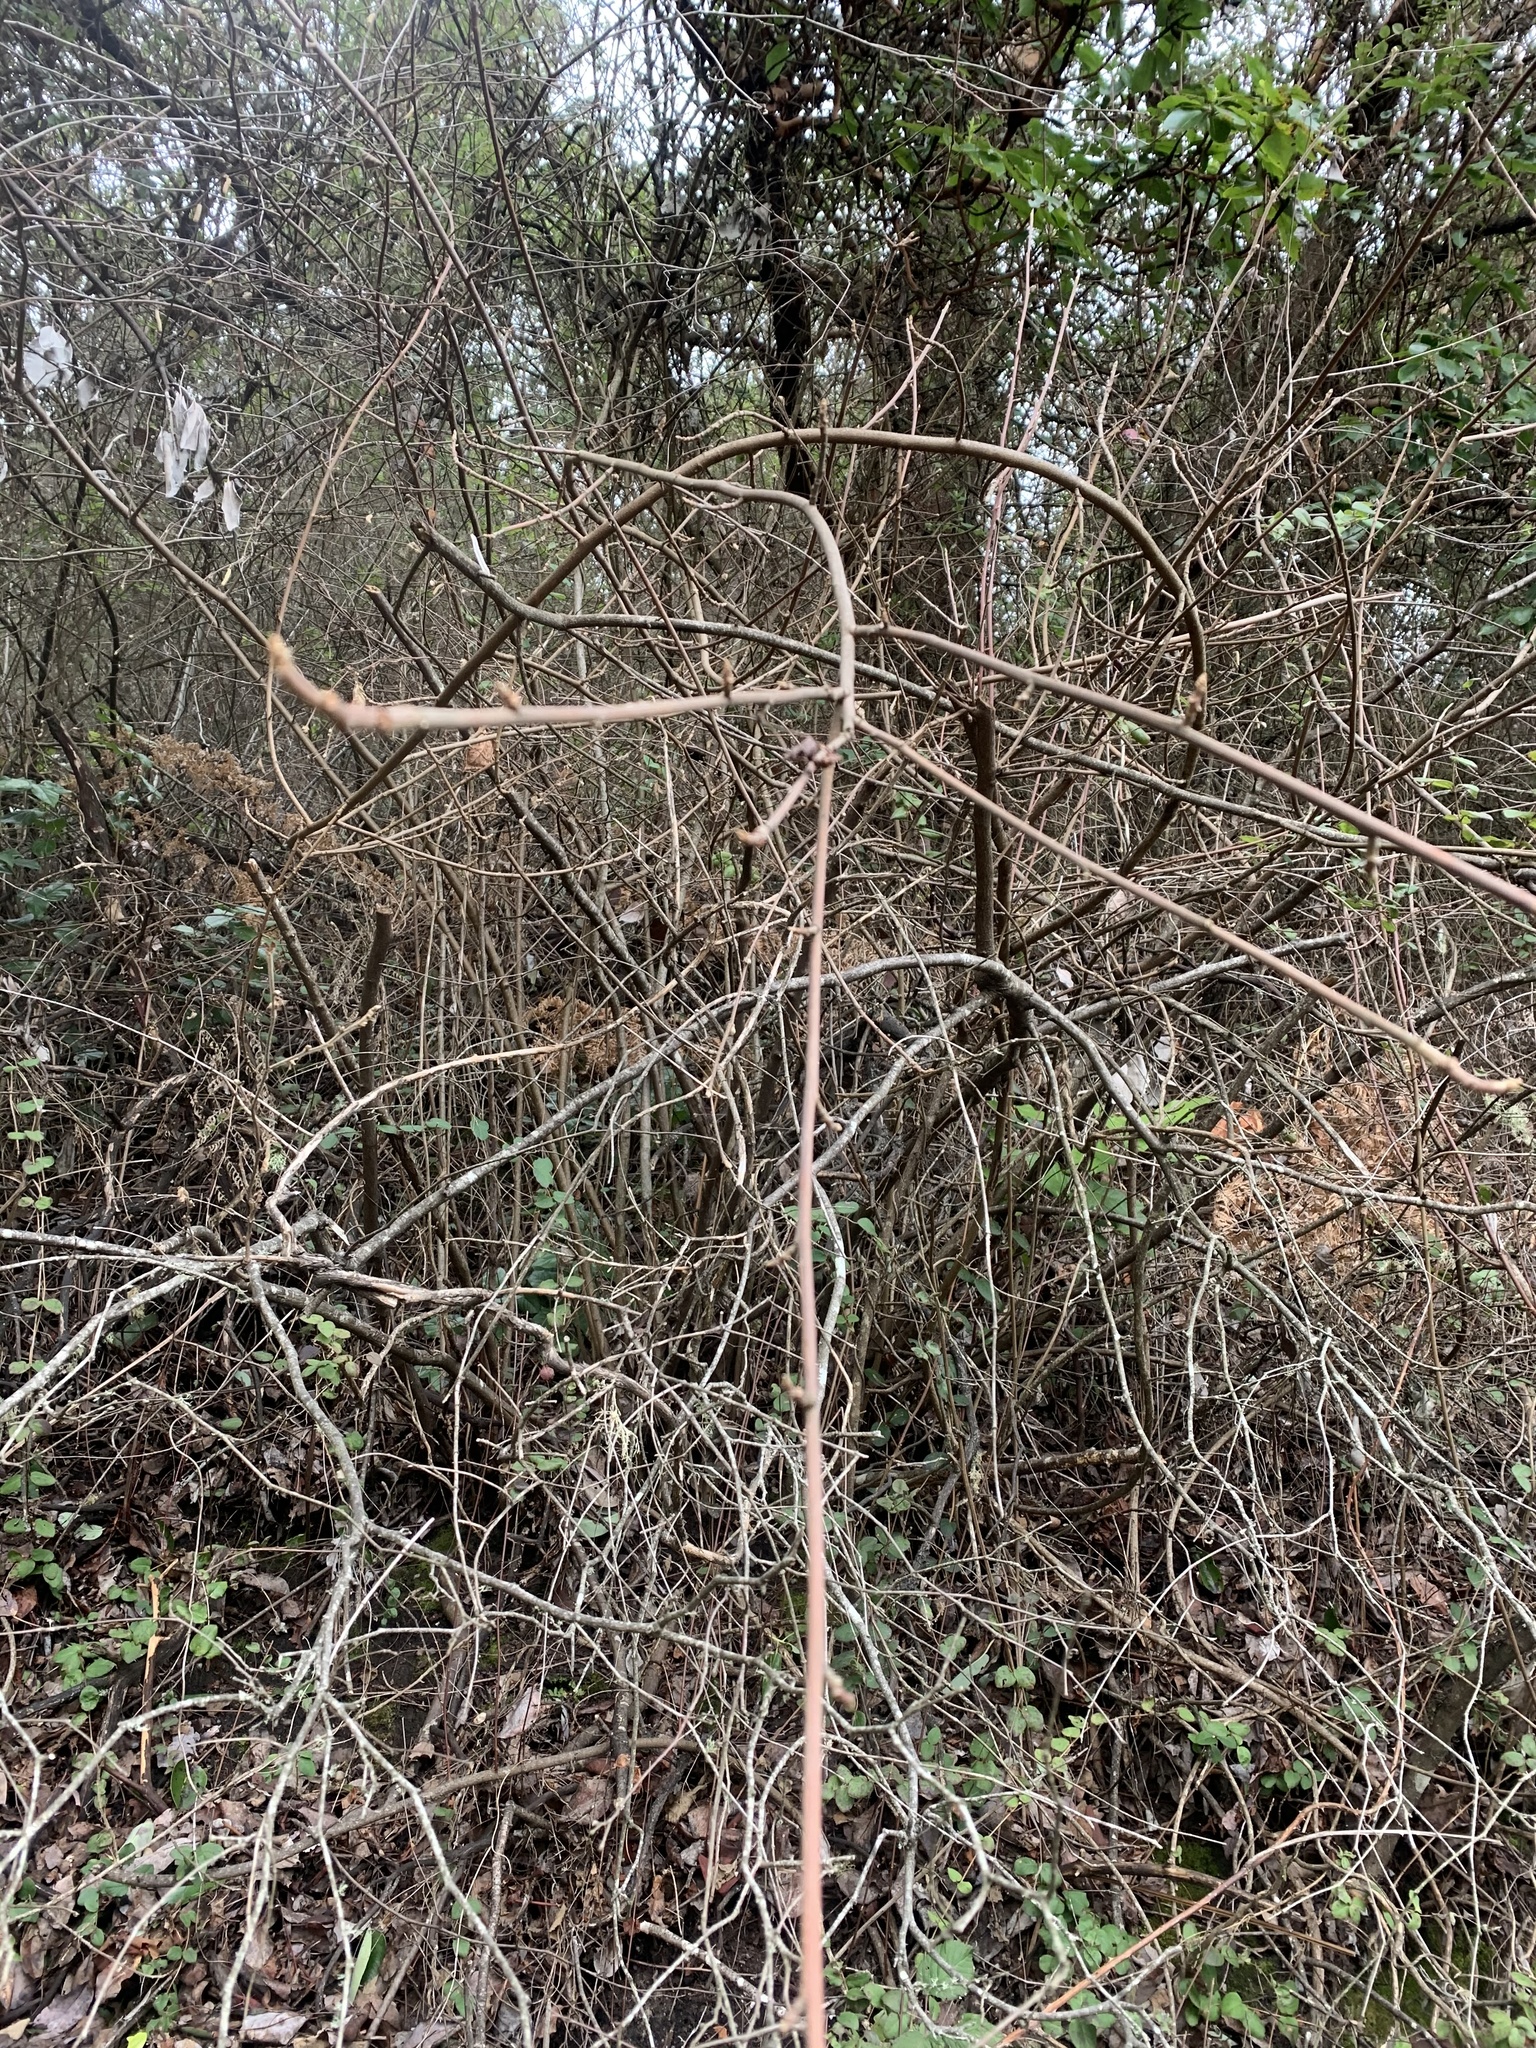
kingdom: Plantae
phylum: Tracheophyta
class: Magnoliopsida
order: Sapindales
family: Anacardiaceae
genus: Toxicodendron
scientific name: Toxicodendron diversilobum
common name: Pacific poison-oak
